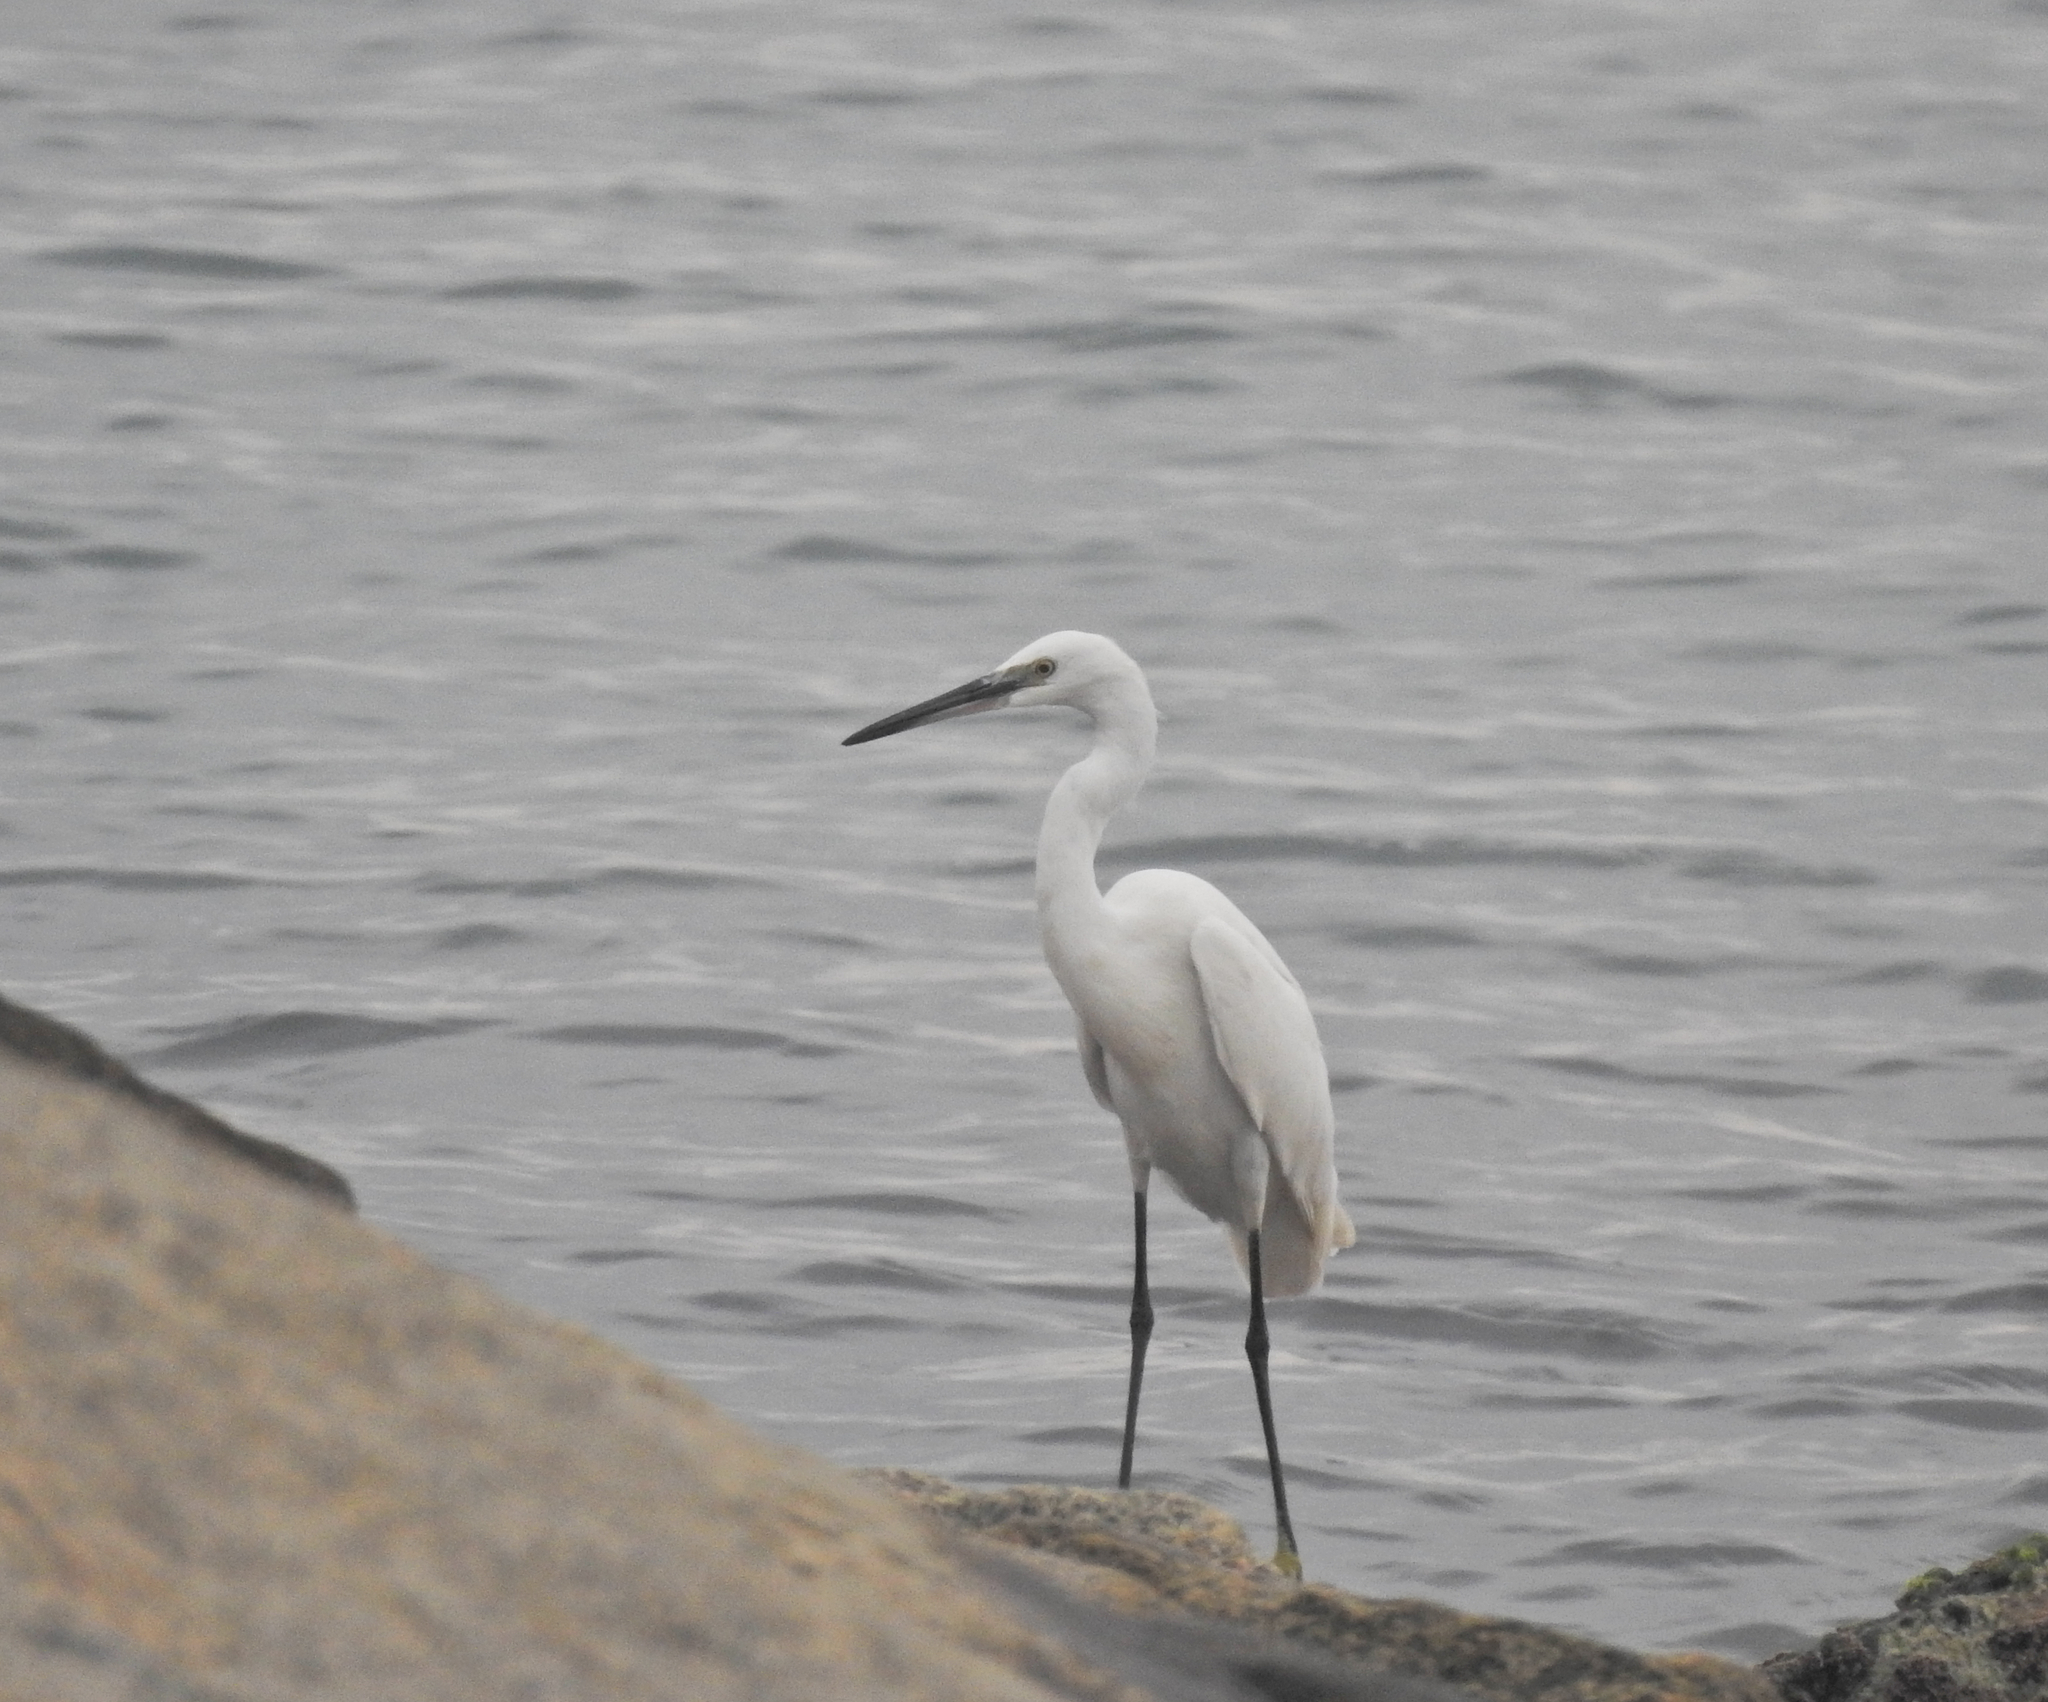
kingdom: Animalia
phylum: Chordata
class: Aves
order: Pelecaniformes
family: Ardeidae
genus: Egretta
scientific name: Egretta garzetta
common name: Little egret
